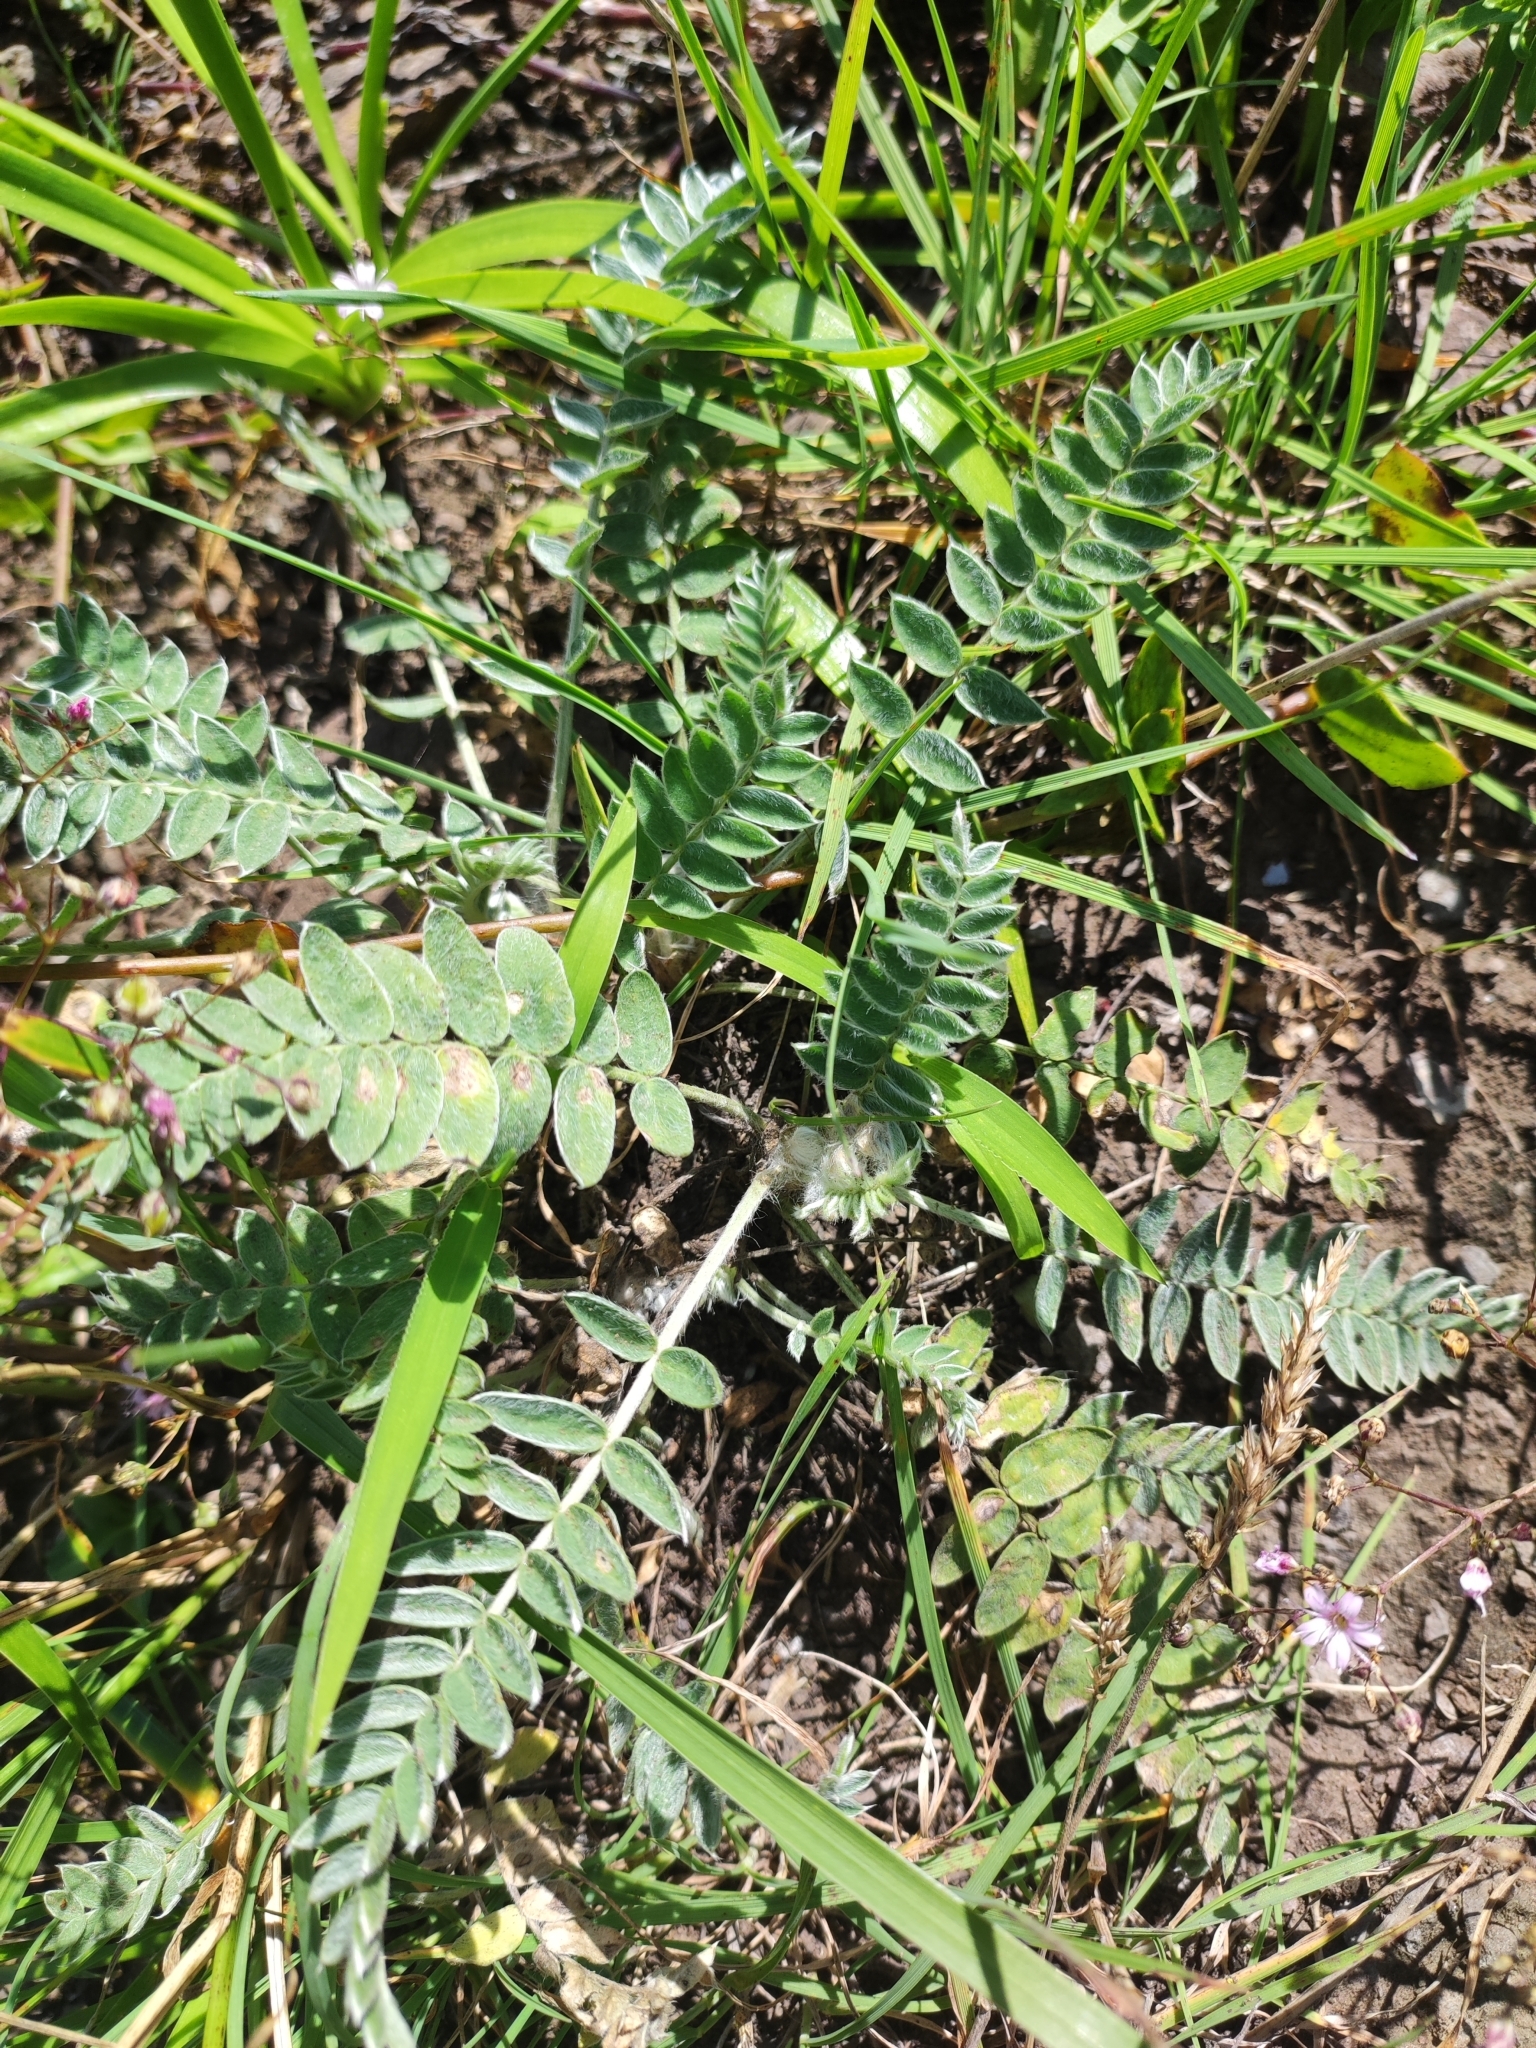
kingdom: Plantae
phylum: Tracheophyta
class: Magnoliopsida
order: Fabales
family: Fabaceae
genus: Oxytropis
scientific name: Oxytropis ruthenica
